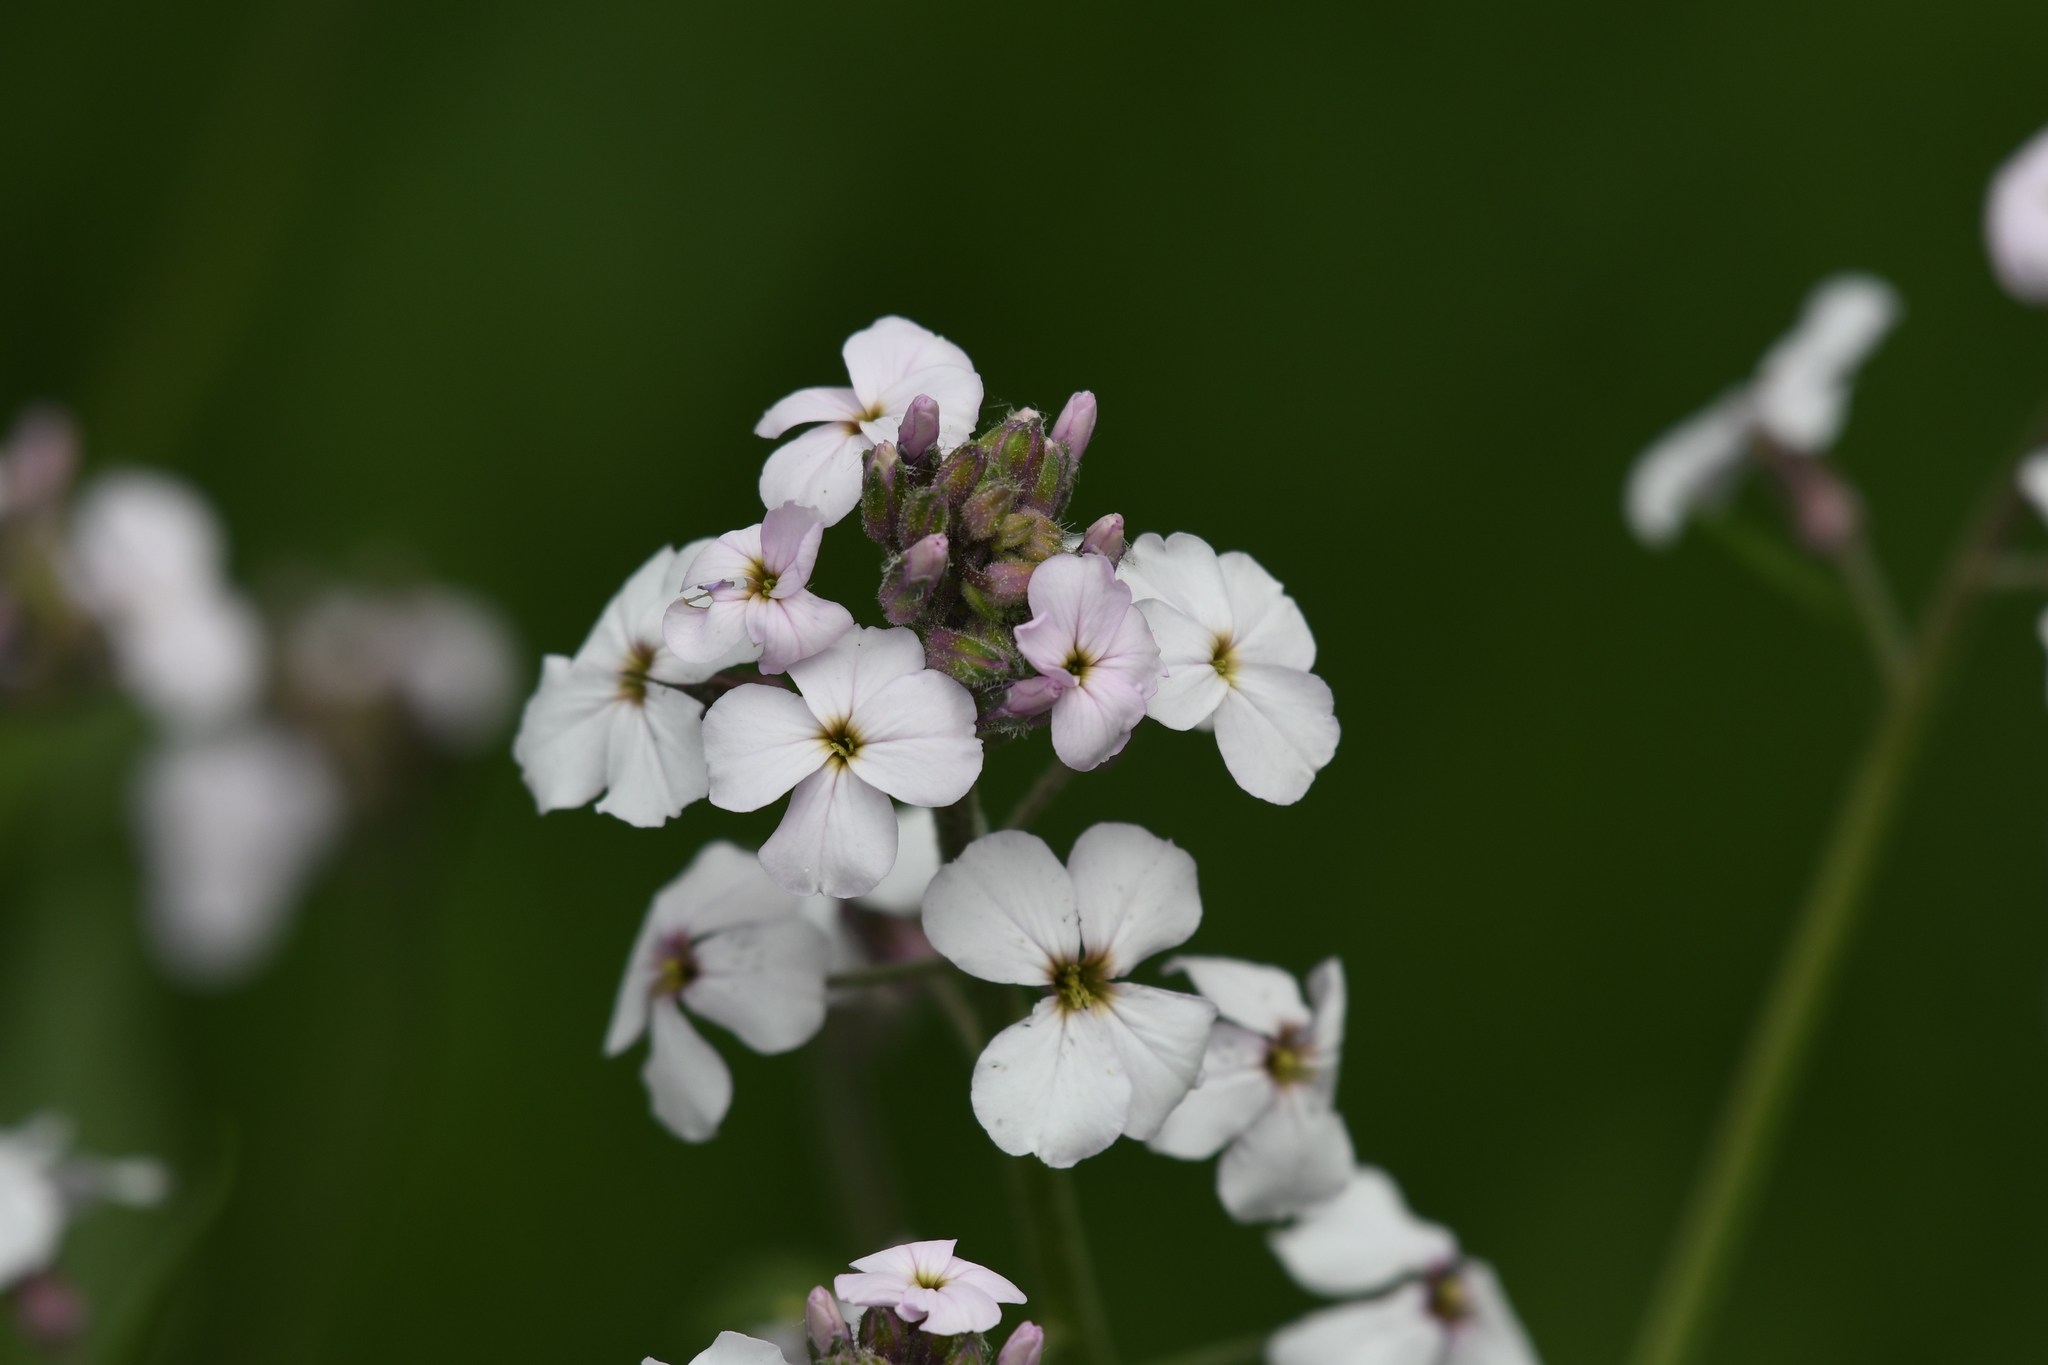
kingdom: Plantae
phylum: Tracheophyta
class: Magnoliopsida
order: Brassicales
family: Brassicaceae
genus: Hesperis
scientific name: Hesperis matronalis
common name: Dame's-violet
